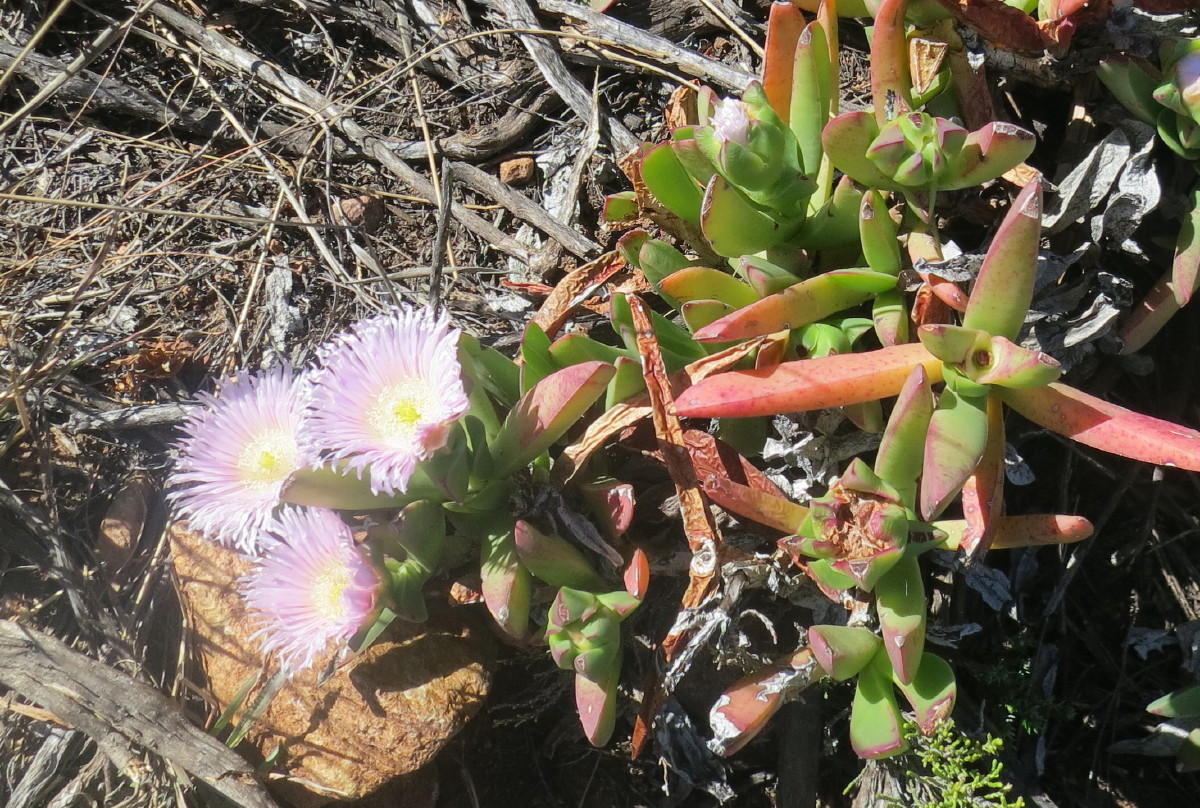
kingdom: Plantae
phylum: Tracheophyta
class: Magnoliopsida
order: Caryophyllales
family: Aizoaceae
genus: Carpobrotus
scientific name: Carpobrotus mellei
